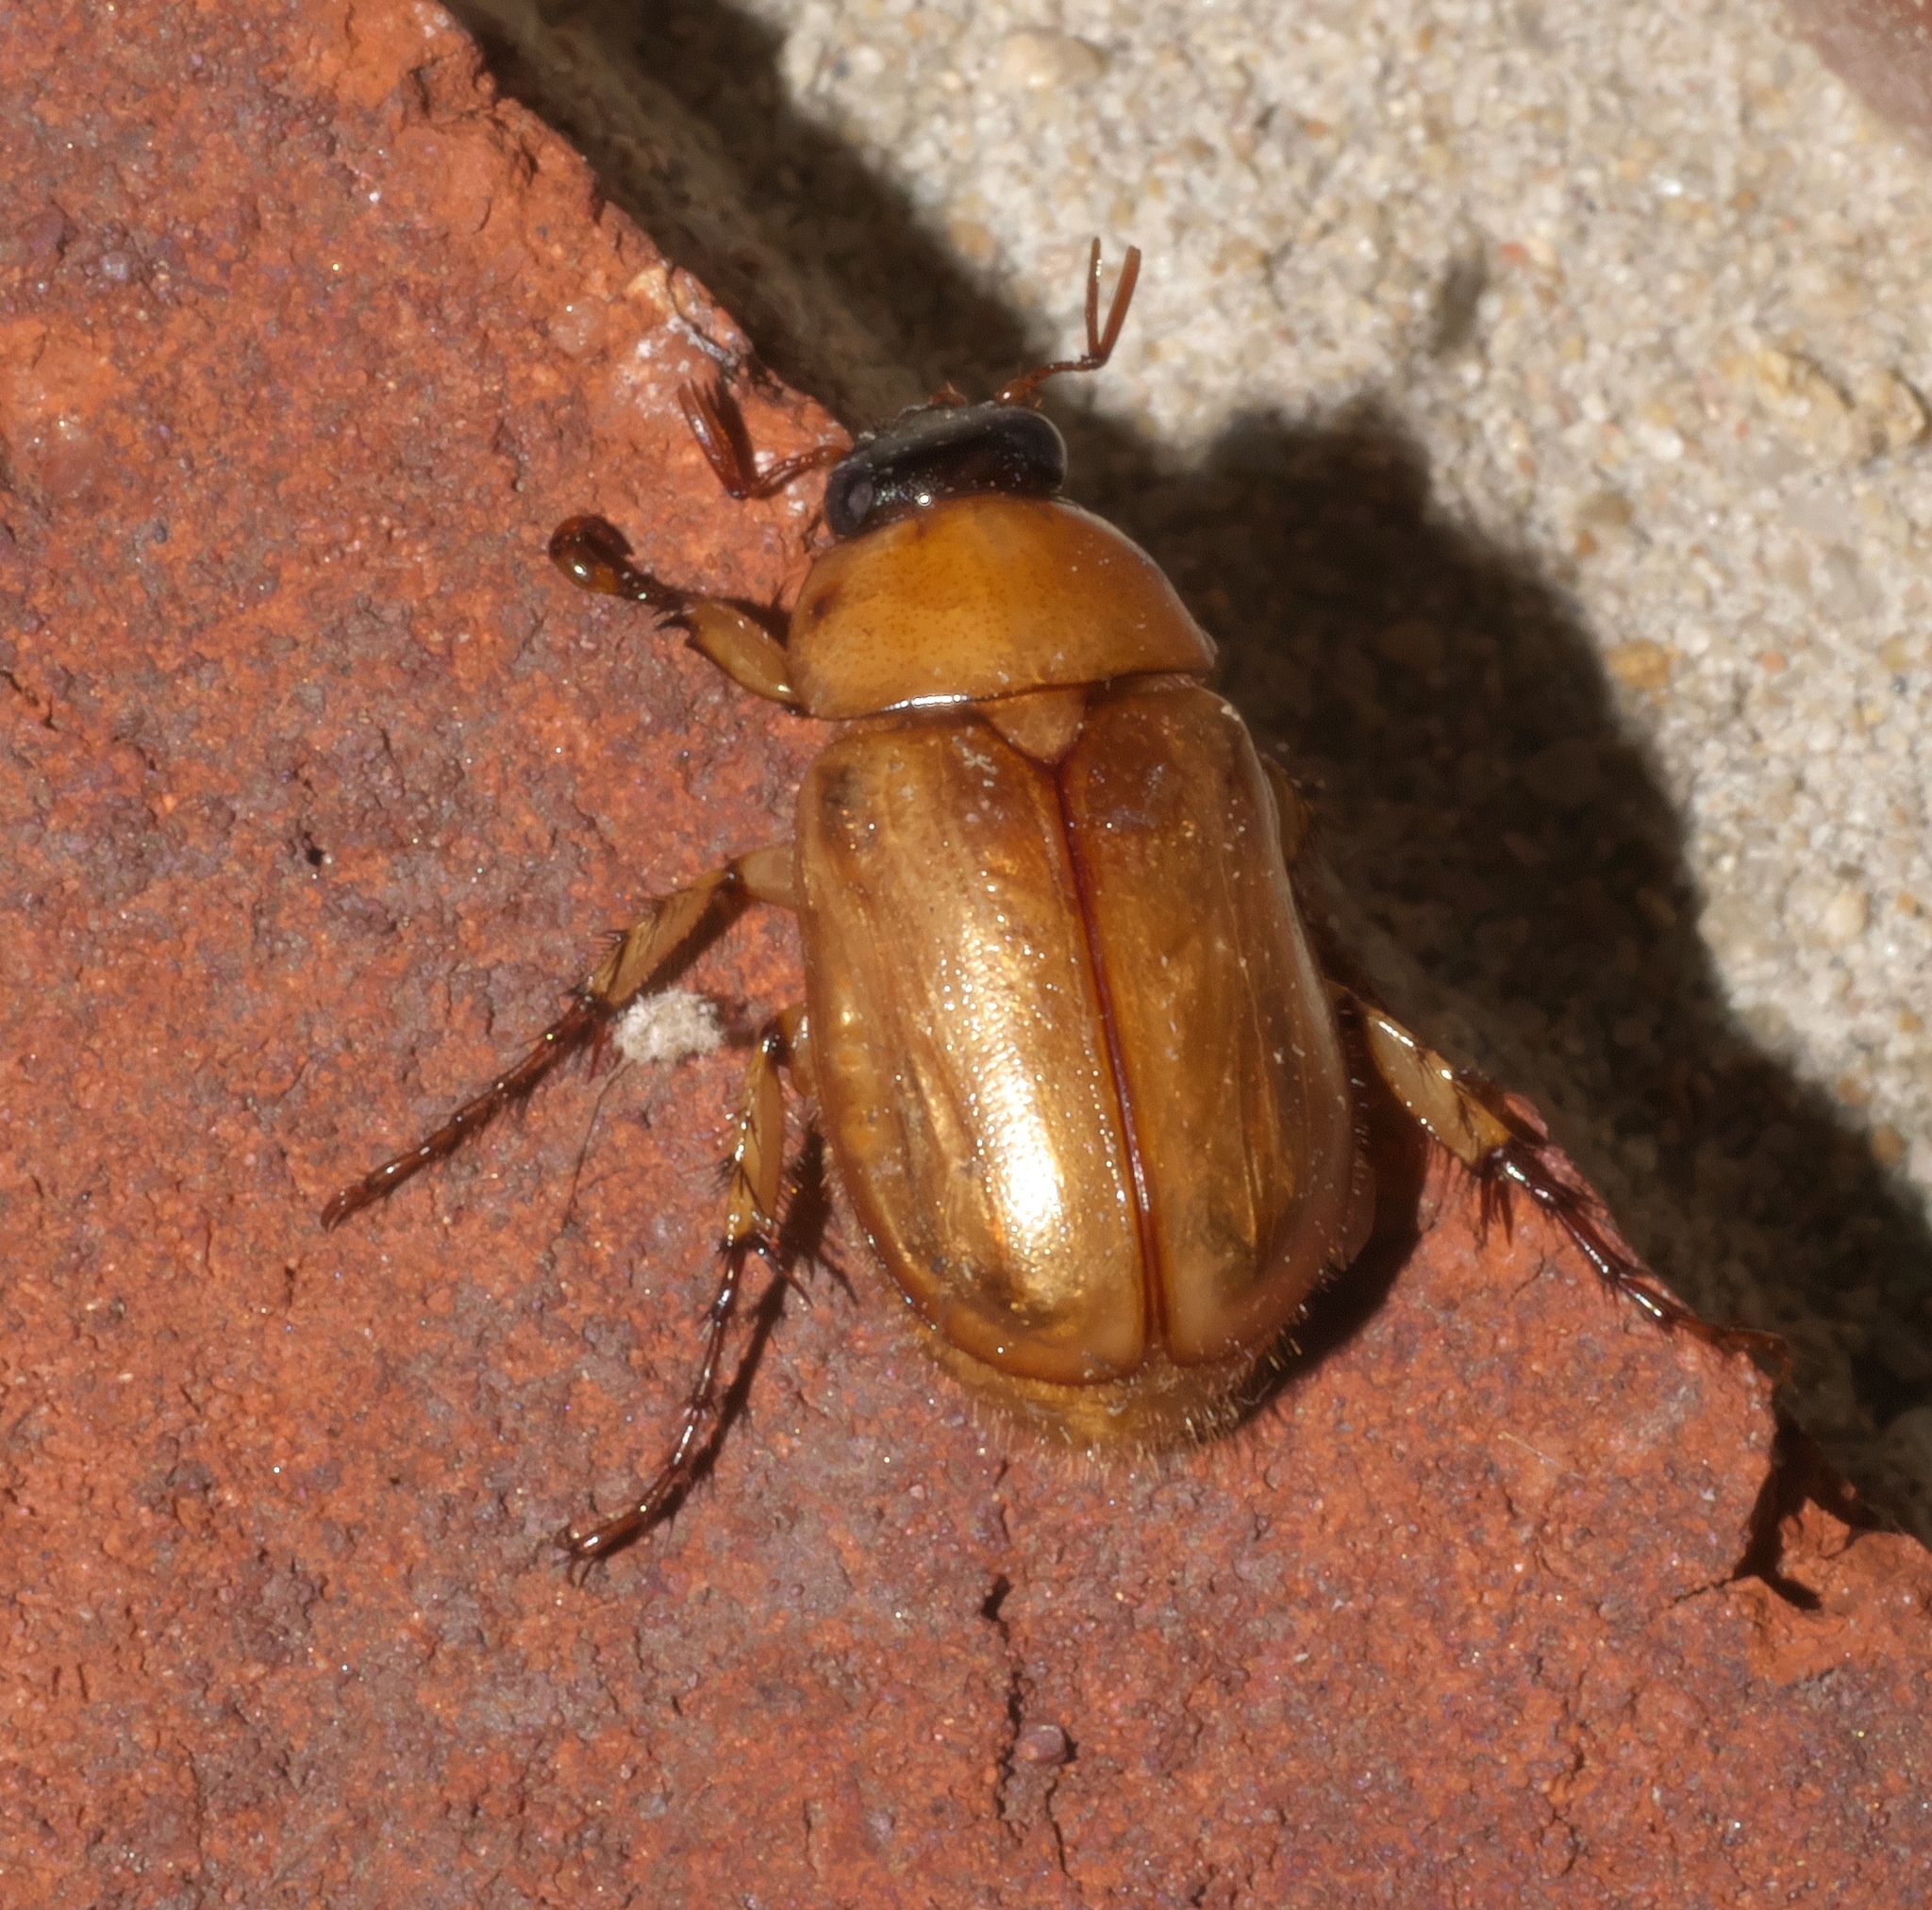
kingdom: Animalia
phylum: Arthropoda
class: Insecta
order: Coleoptera
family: Scarabaeidae
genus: Cyclocephala
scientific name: Cyclocephala lurida
